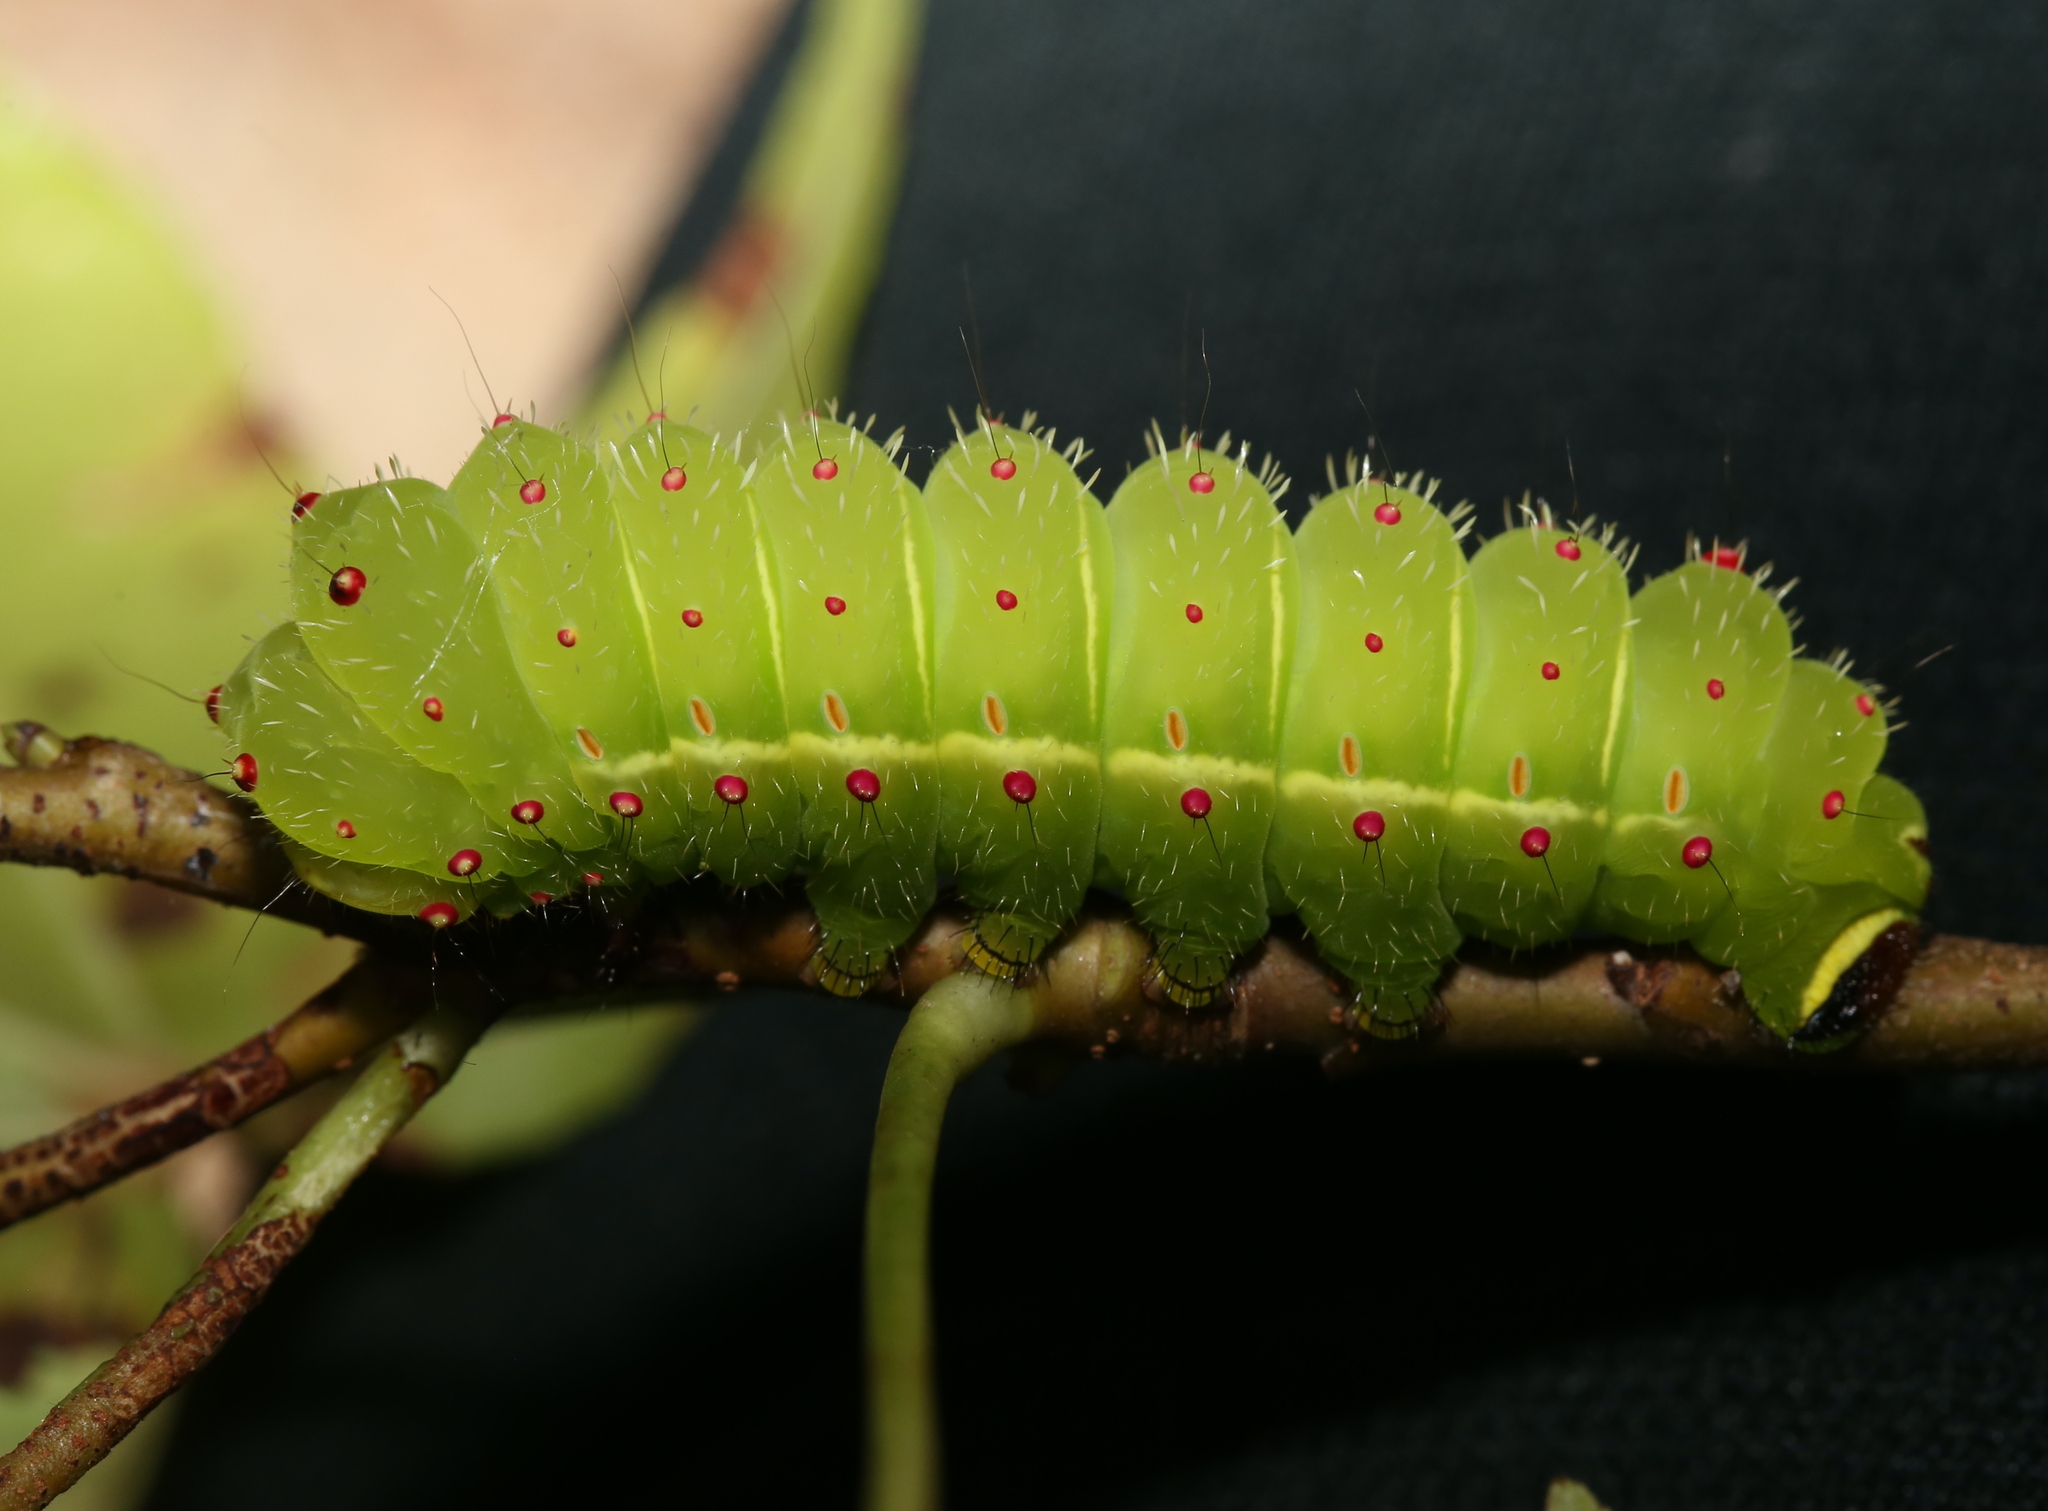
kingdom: Animalia
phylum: Arthropoda
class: Insecta
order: Lepidoptera
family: Saturniidae
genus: Actias
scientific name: Actias luna
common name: Luna moth
